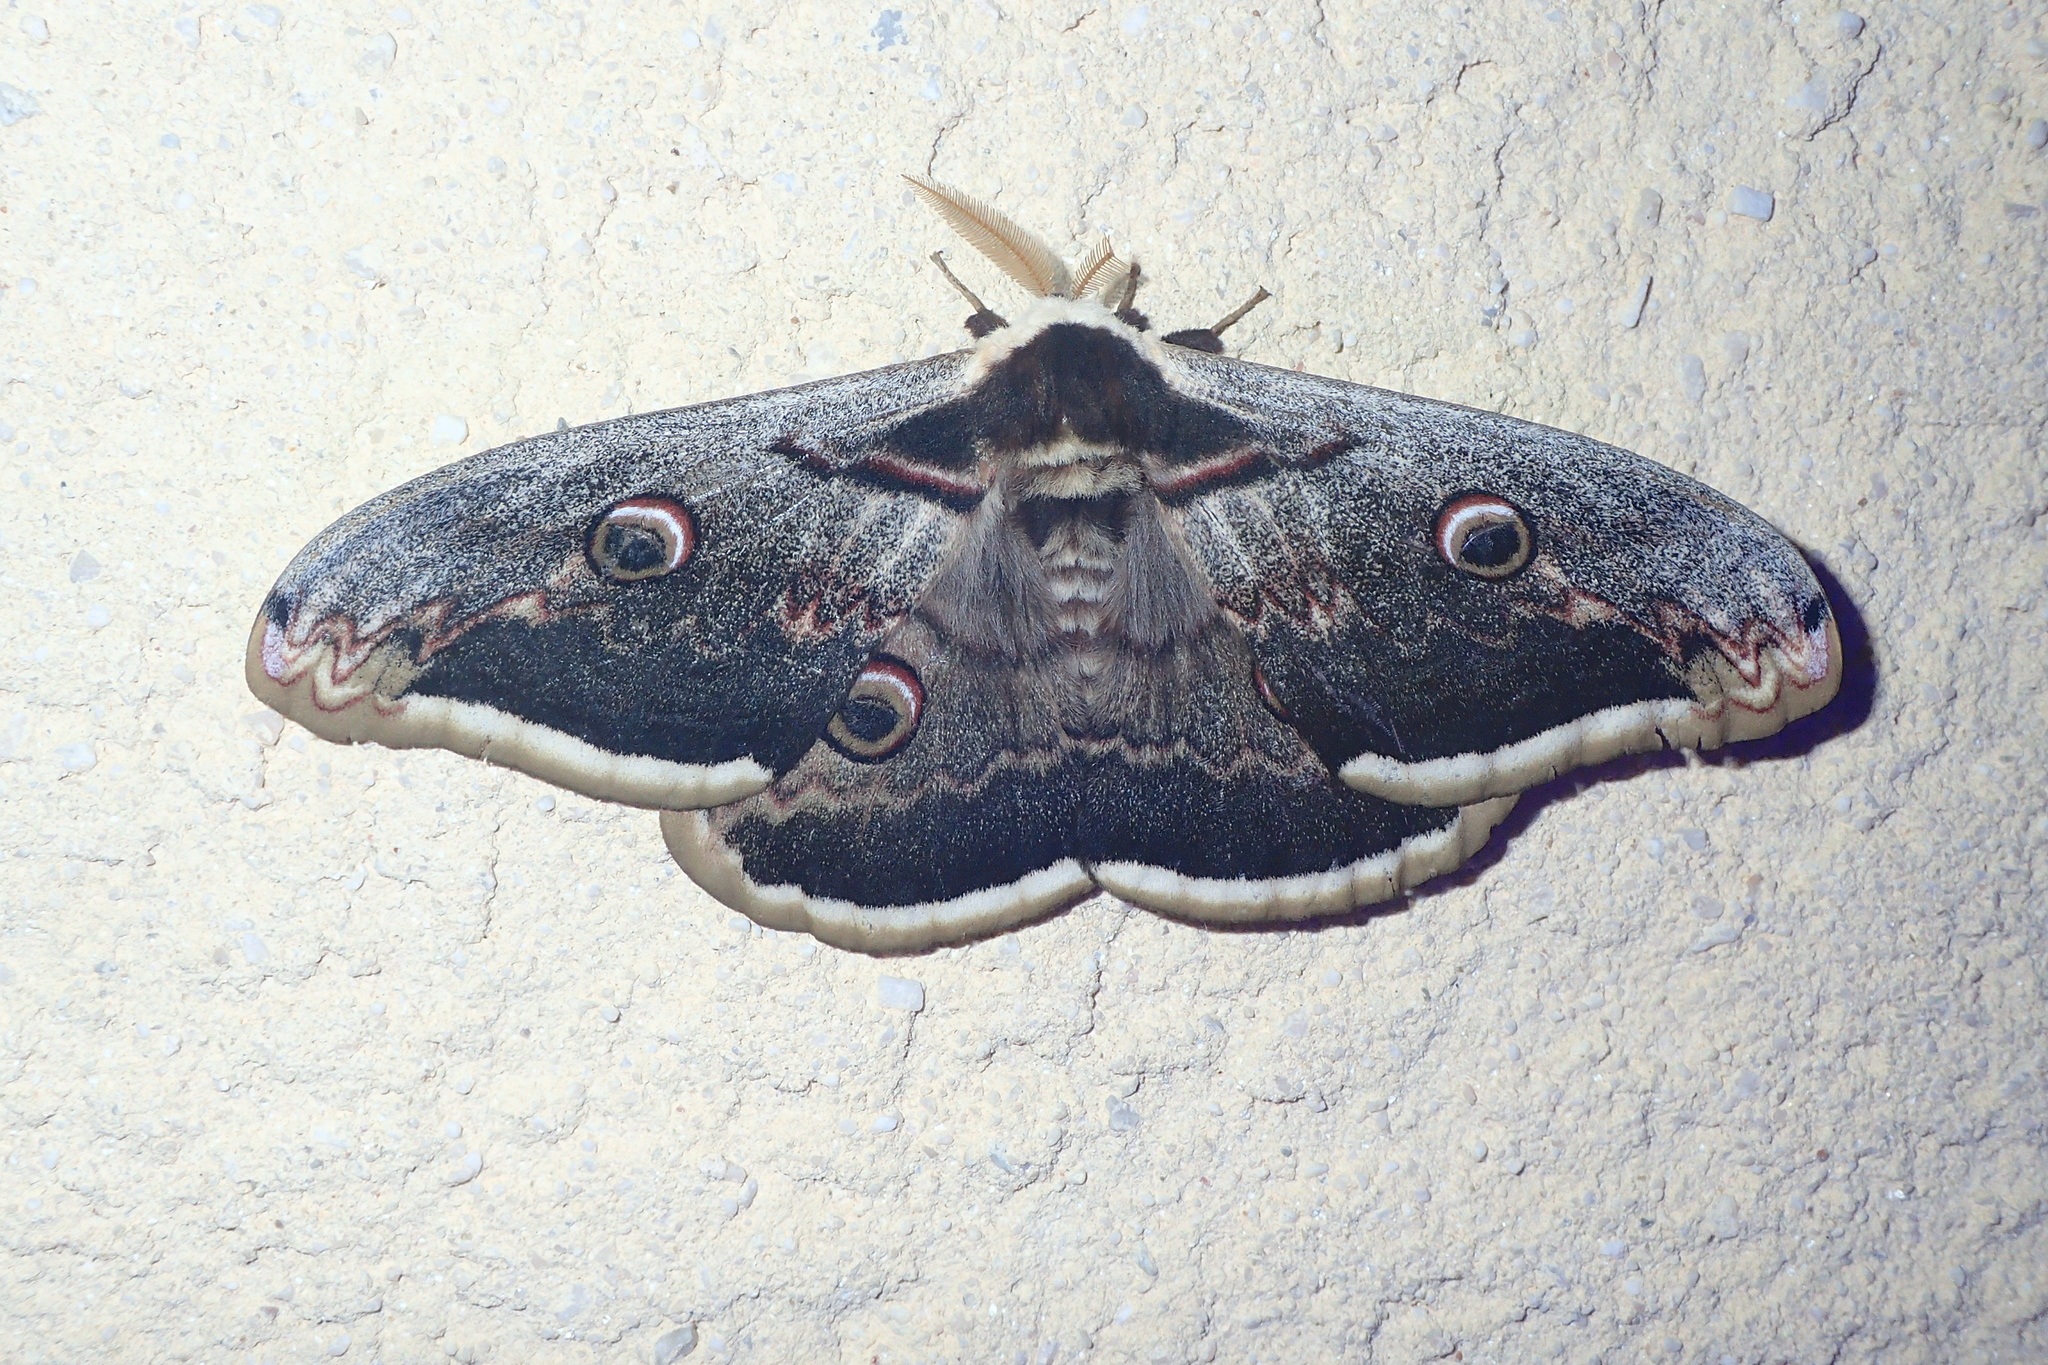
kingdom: Animalia
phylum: Arthropoda
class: Insecta
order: Lepidoptera
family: Saturniidae
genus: Saturnia
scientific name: Saturnia pyri
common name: Great peacock moth
